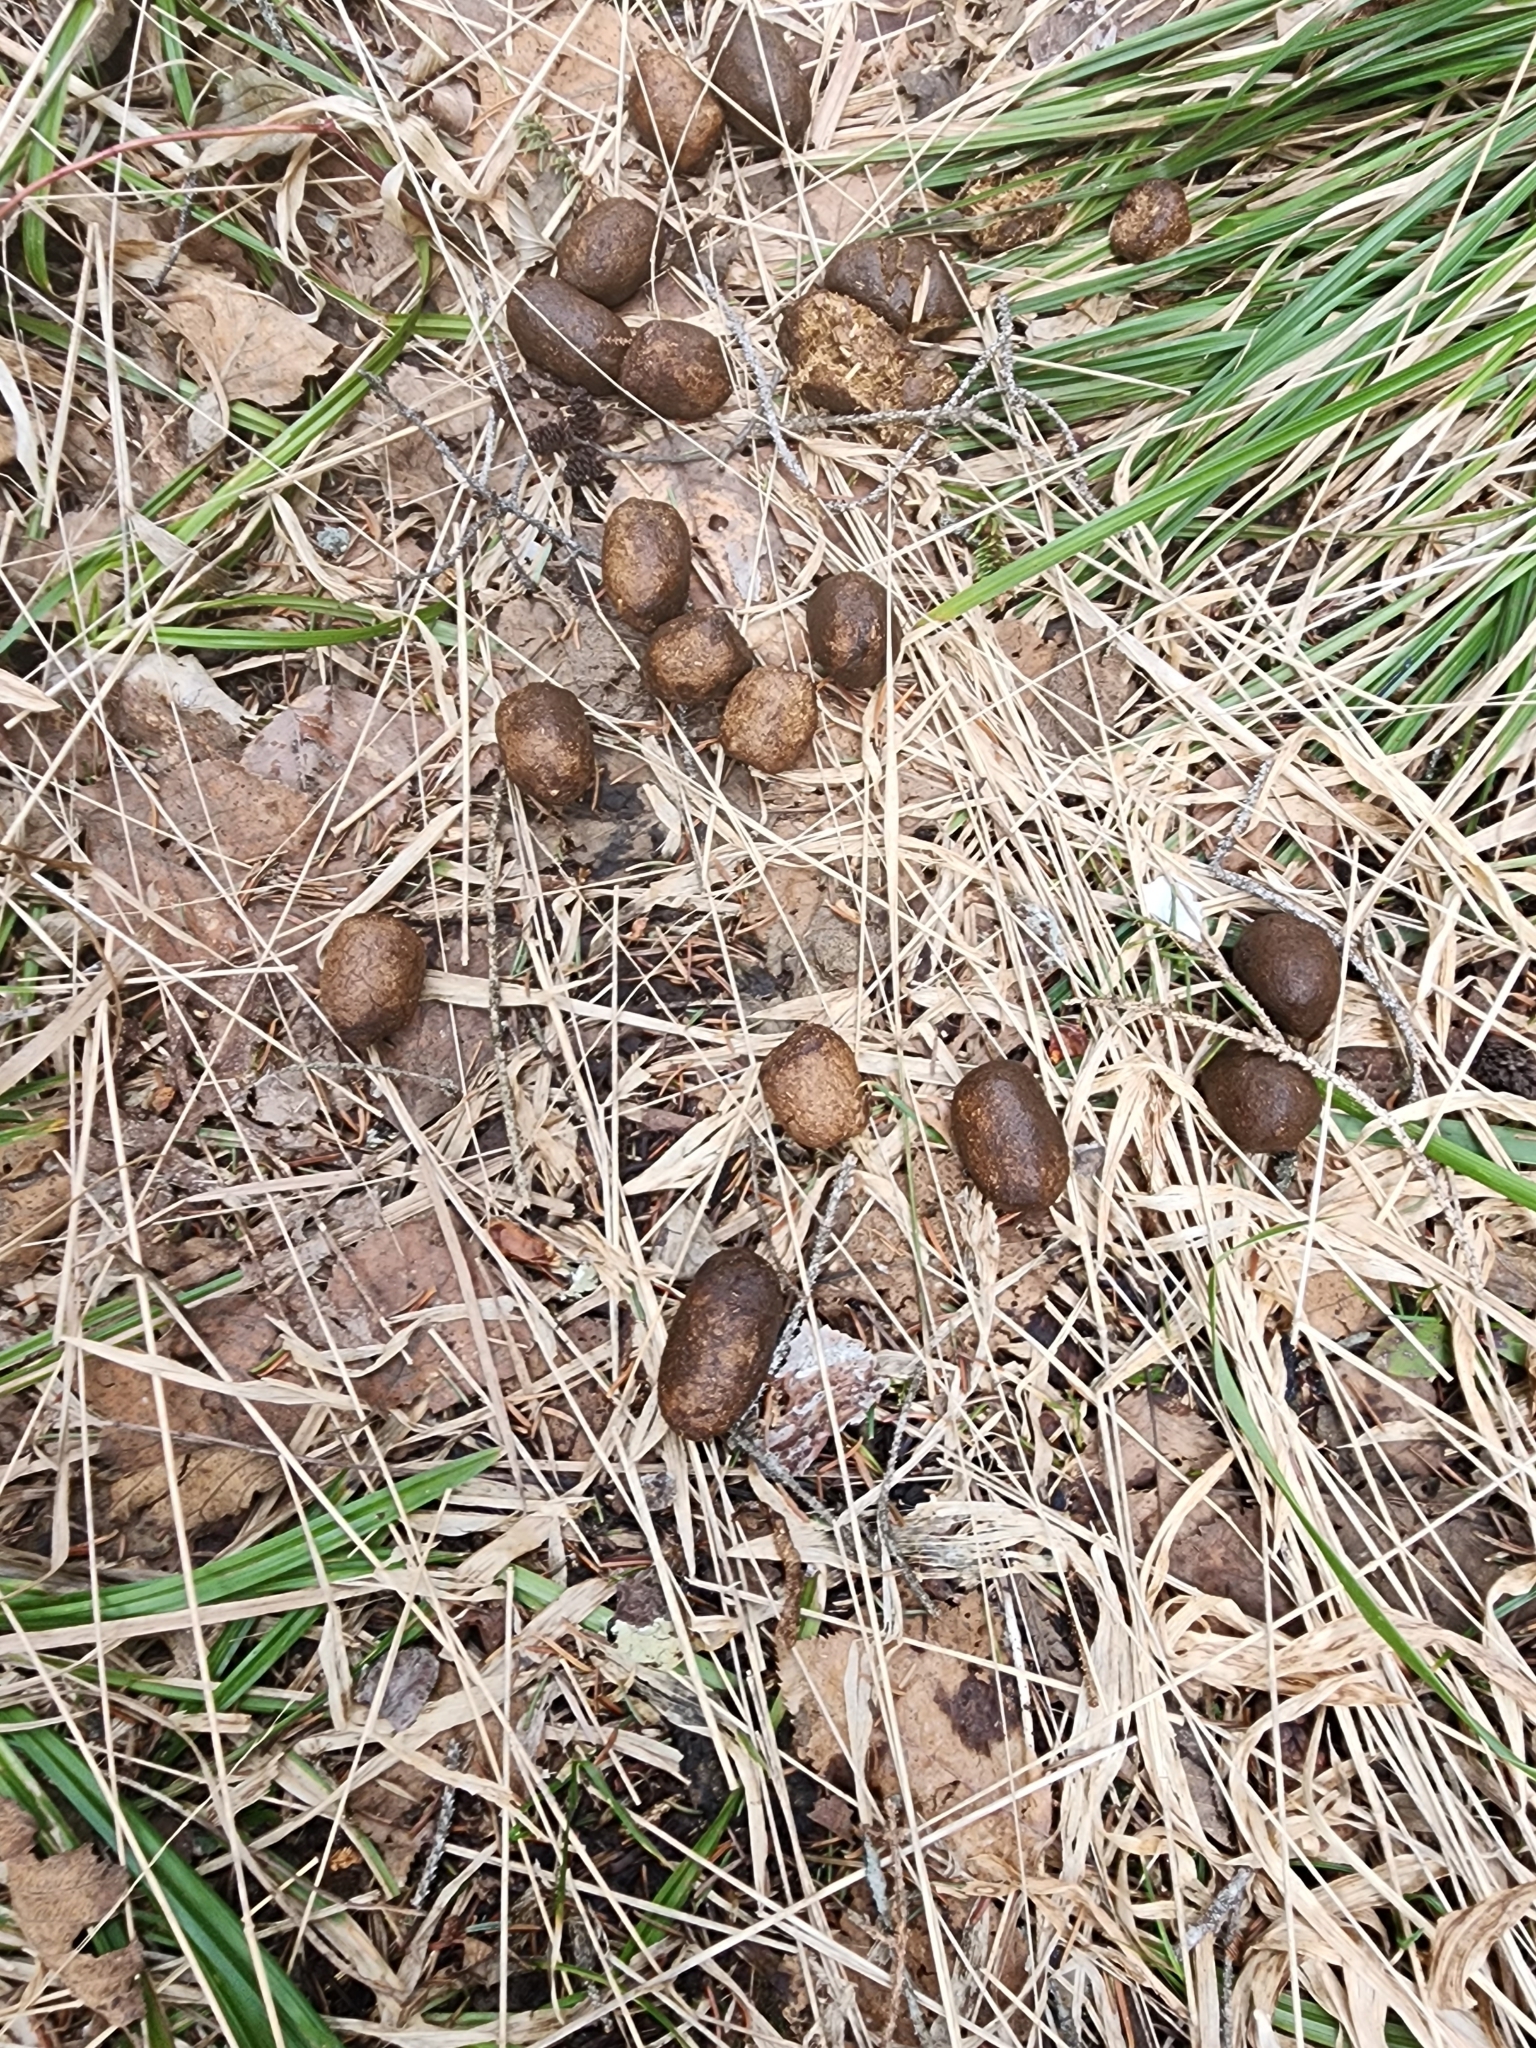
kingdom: Animalia
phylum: Chordata
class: Mammalia
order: Artiodactyla
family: Cervidae
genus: Alces
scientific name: Alces alces
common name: Moose
